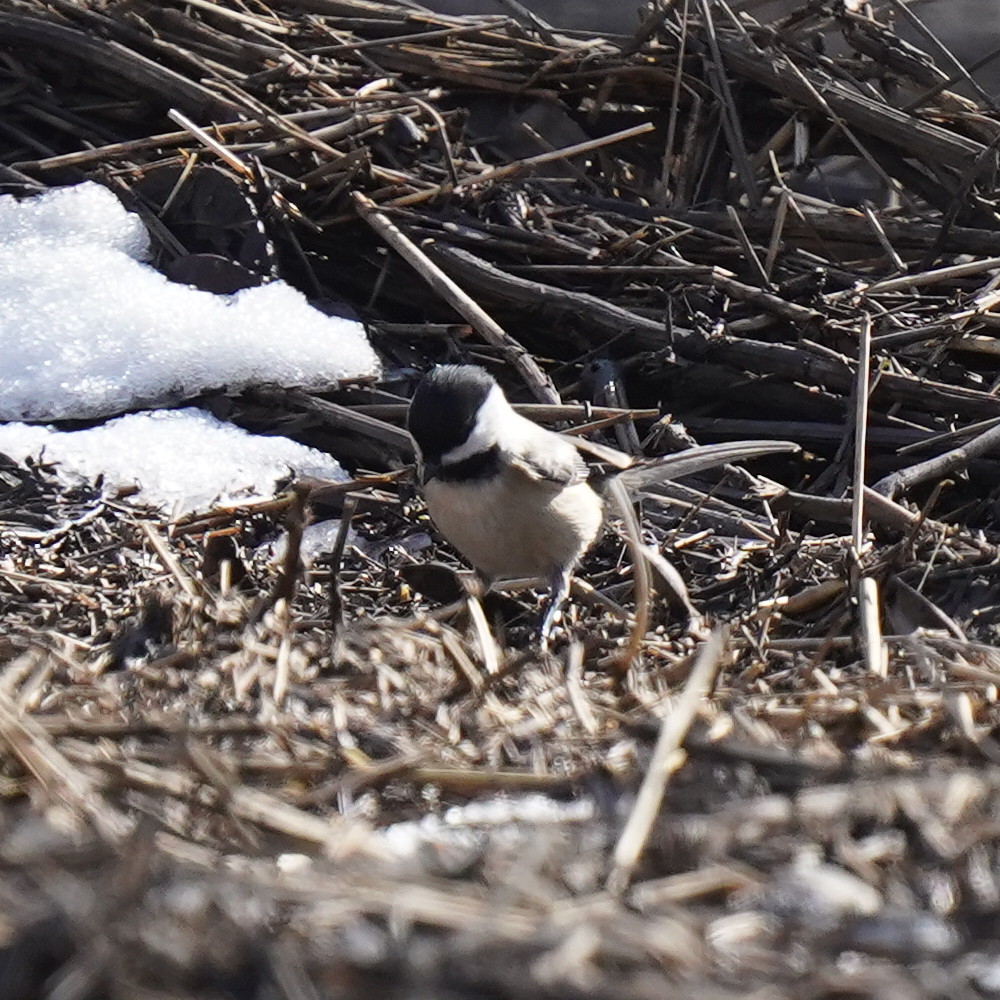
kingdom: Animalia
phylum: Chordata
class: Aves
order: Passeriformes
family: Paridae
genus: Poecile
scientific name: Poecile atricapillus
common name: Black-capped chickadee
